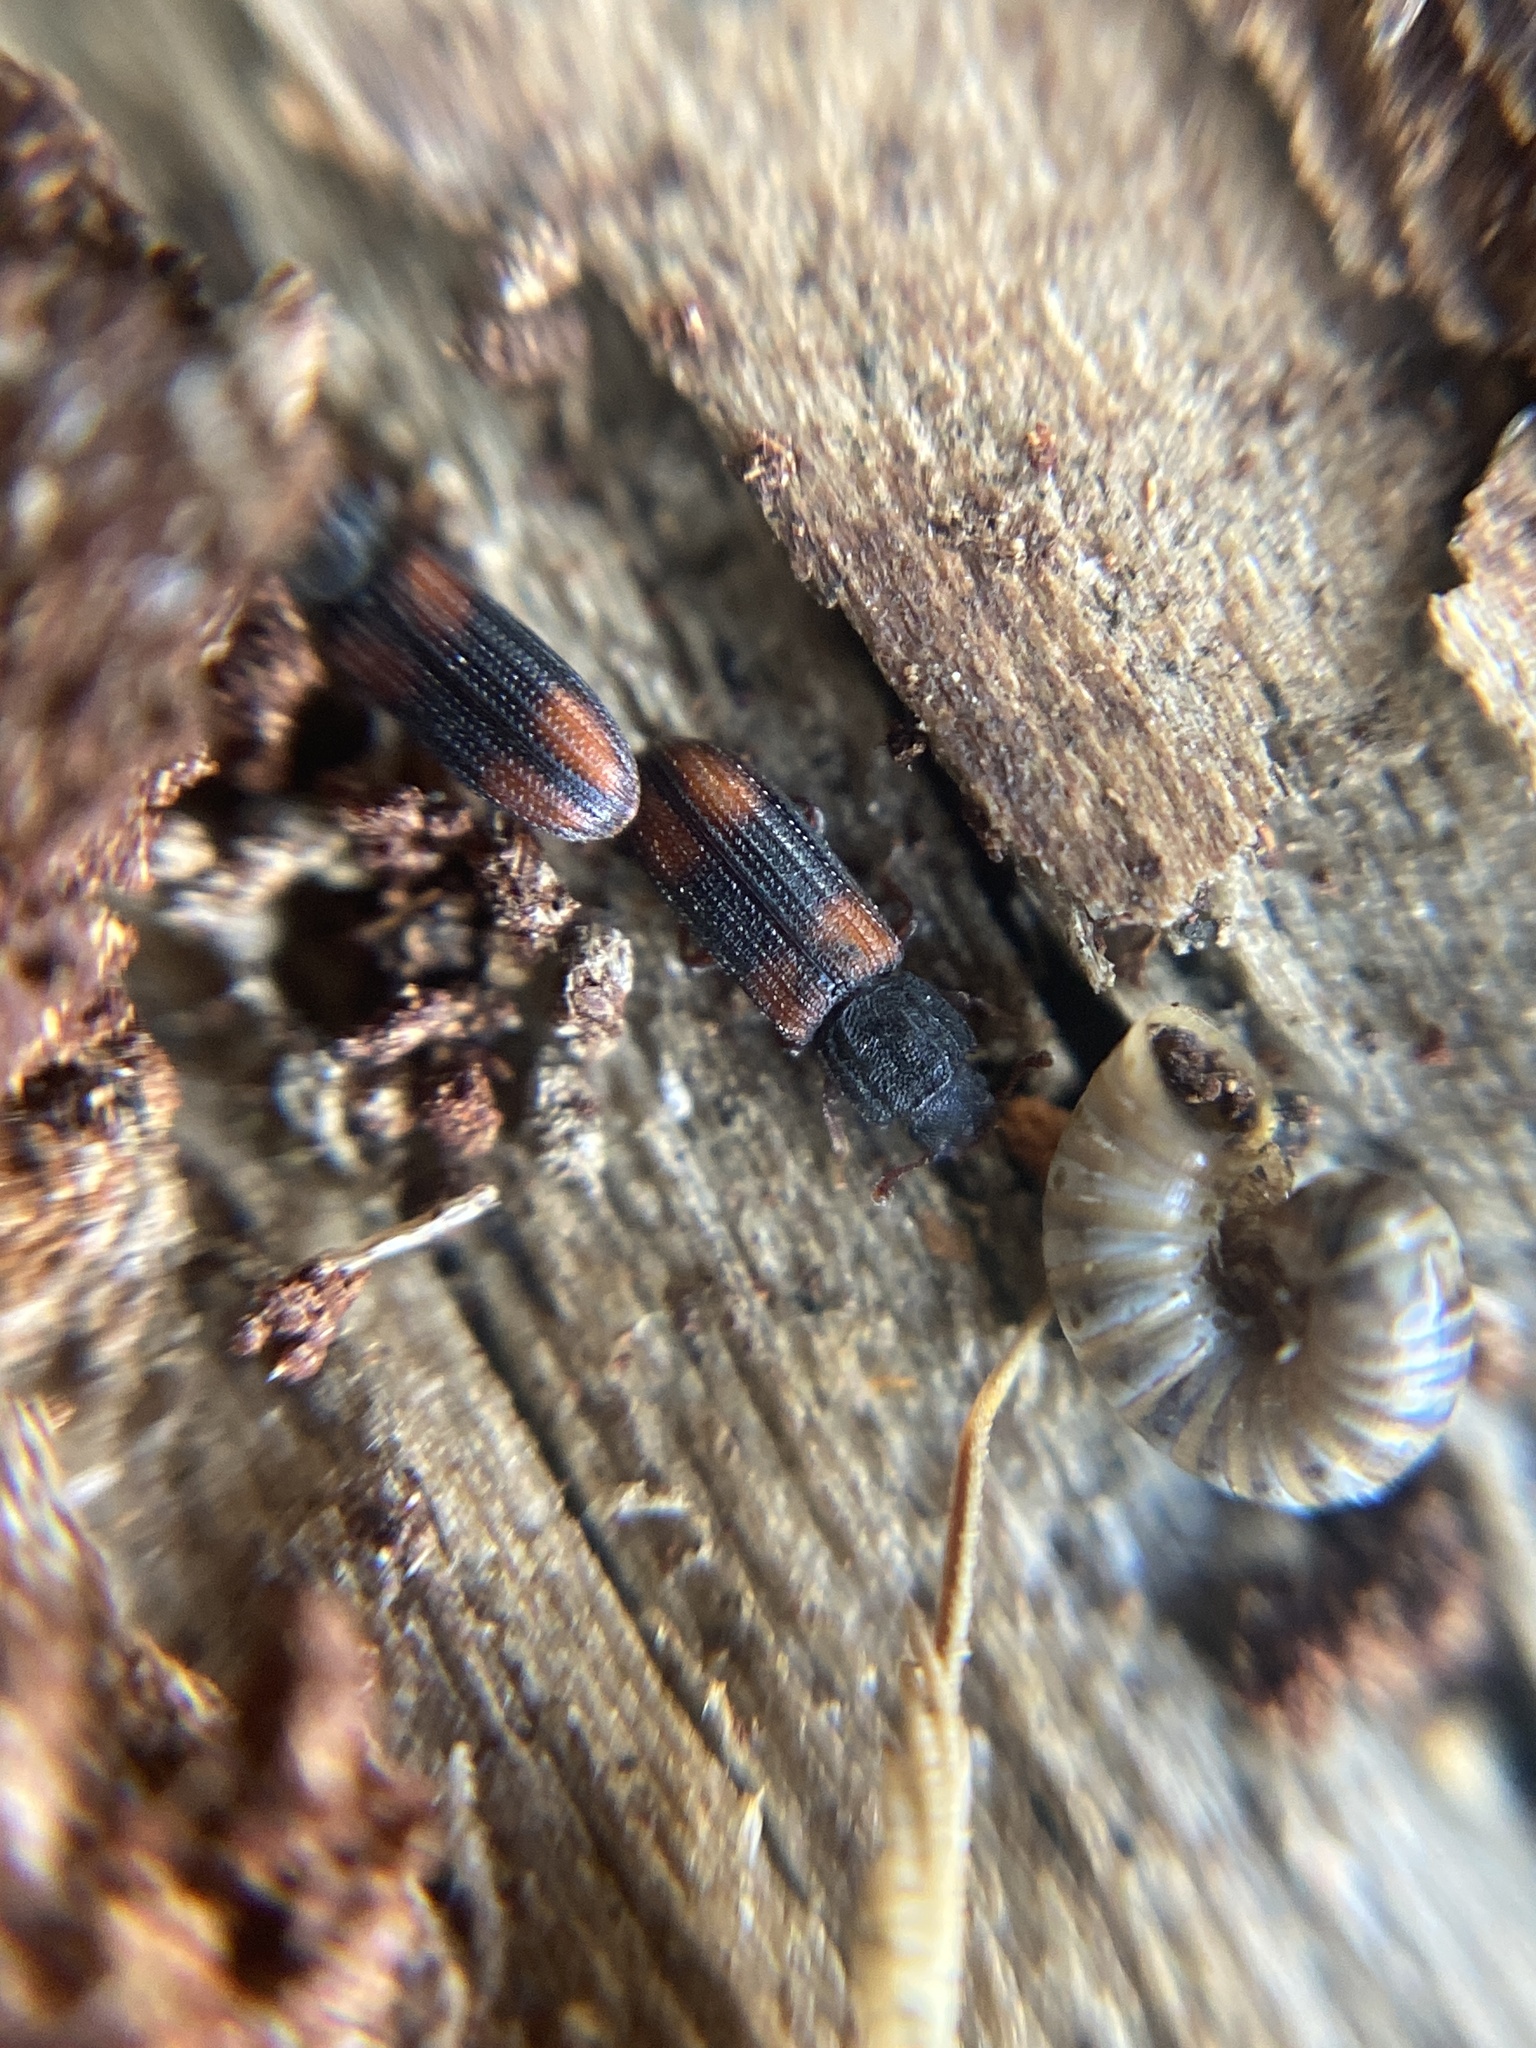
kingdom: Animalia
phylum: Arthropoda
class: Insecta
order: Coleoptera
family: Zopheridae
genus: Bitoma
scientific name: Bitoma crenata
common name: Bark beetle
